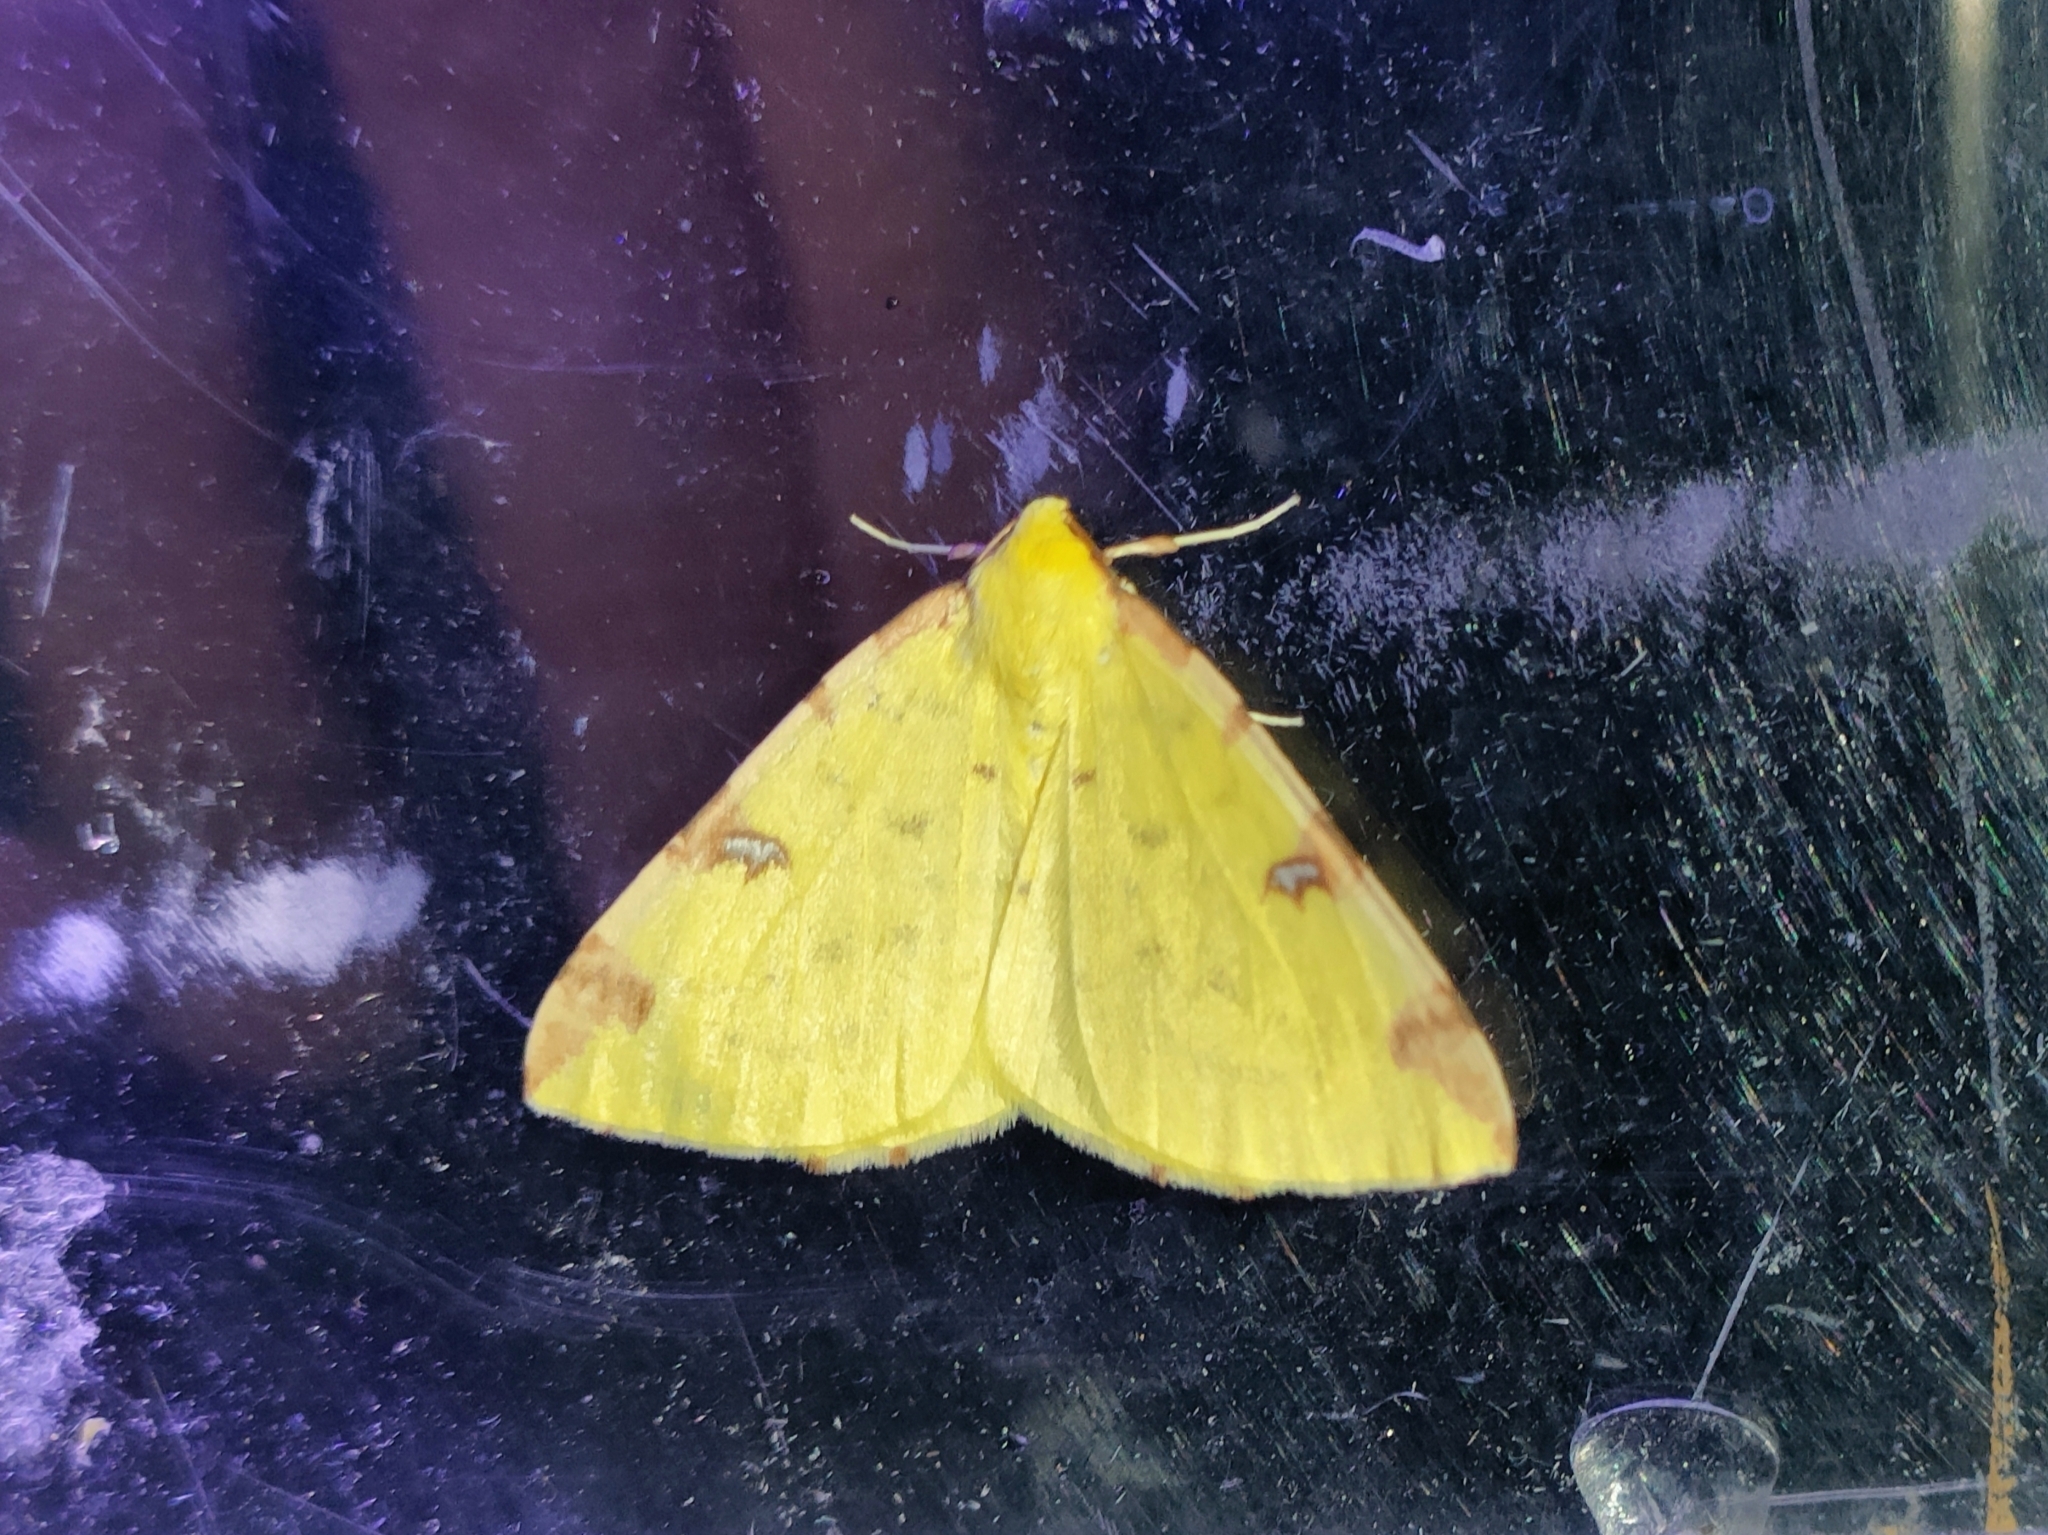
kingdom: Animalia
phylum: Arthropoda
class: Insecta
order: Lepidoptera
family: Geometridae
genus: Opisthograptis
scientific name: Opisthograptis luteolata
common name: Brimstone moth
